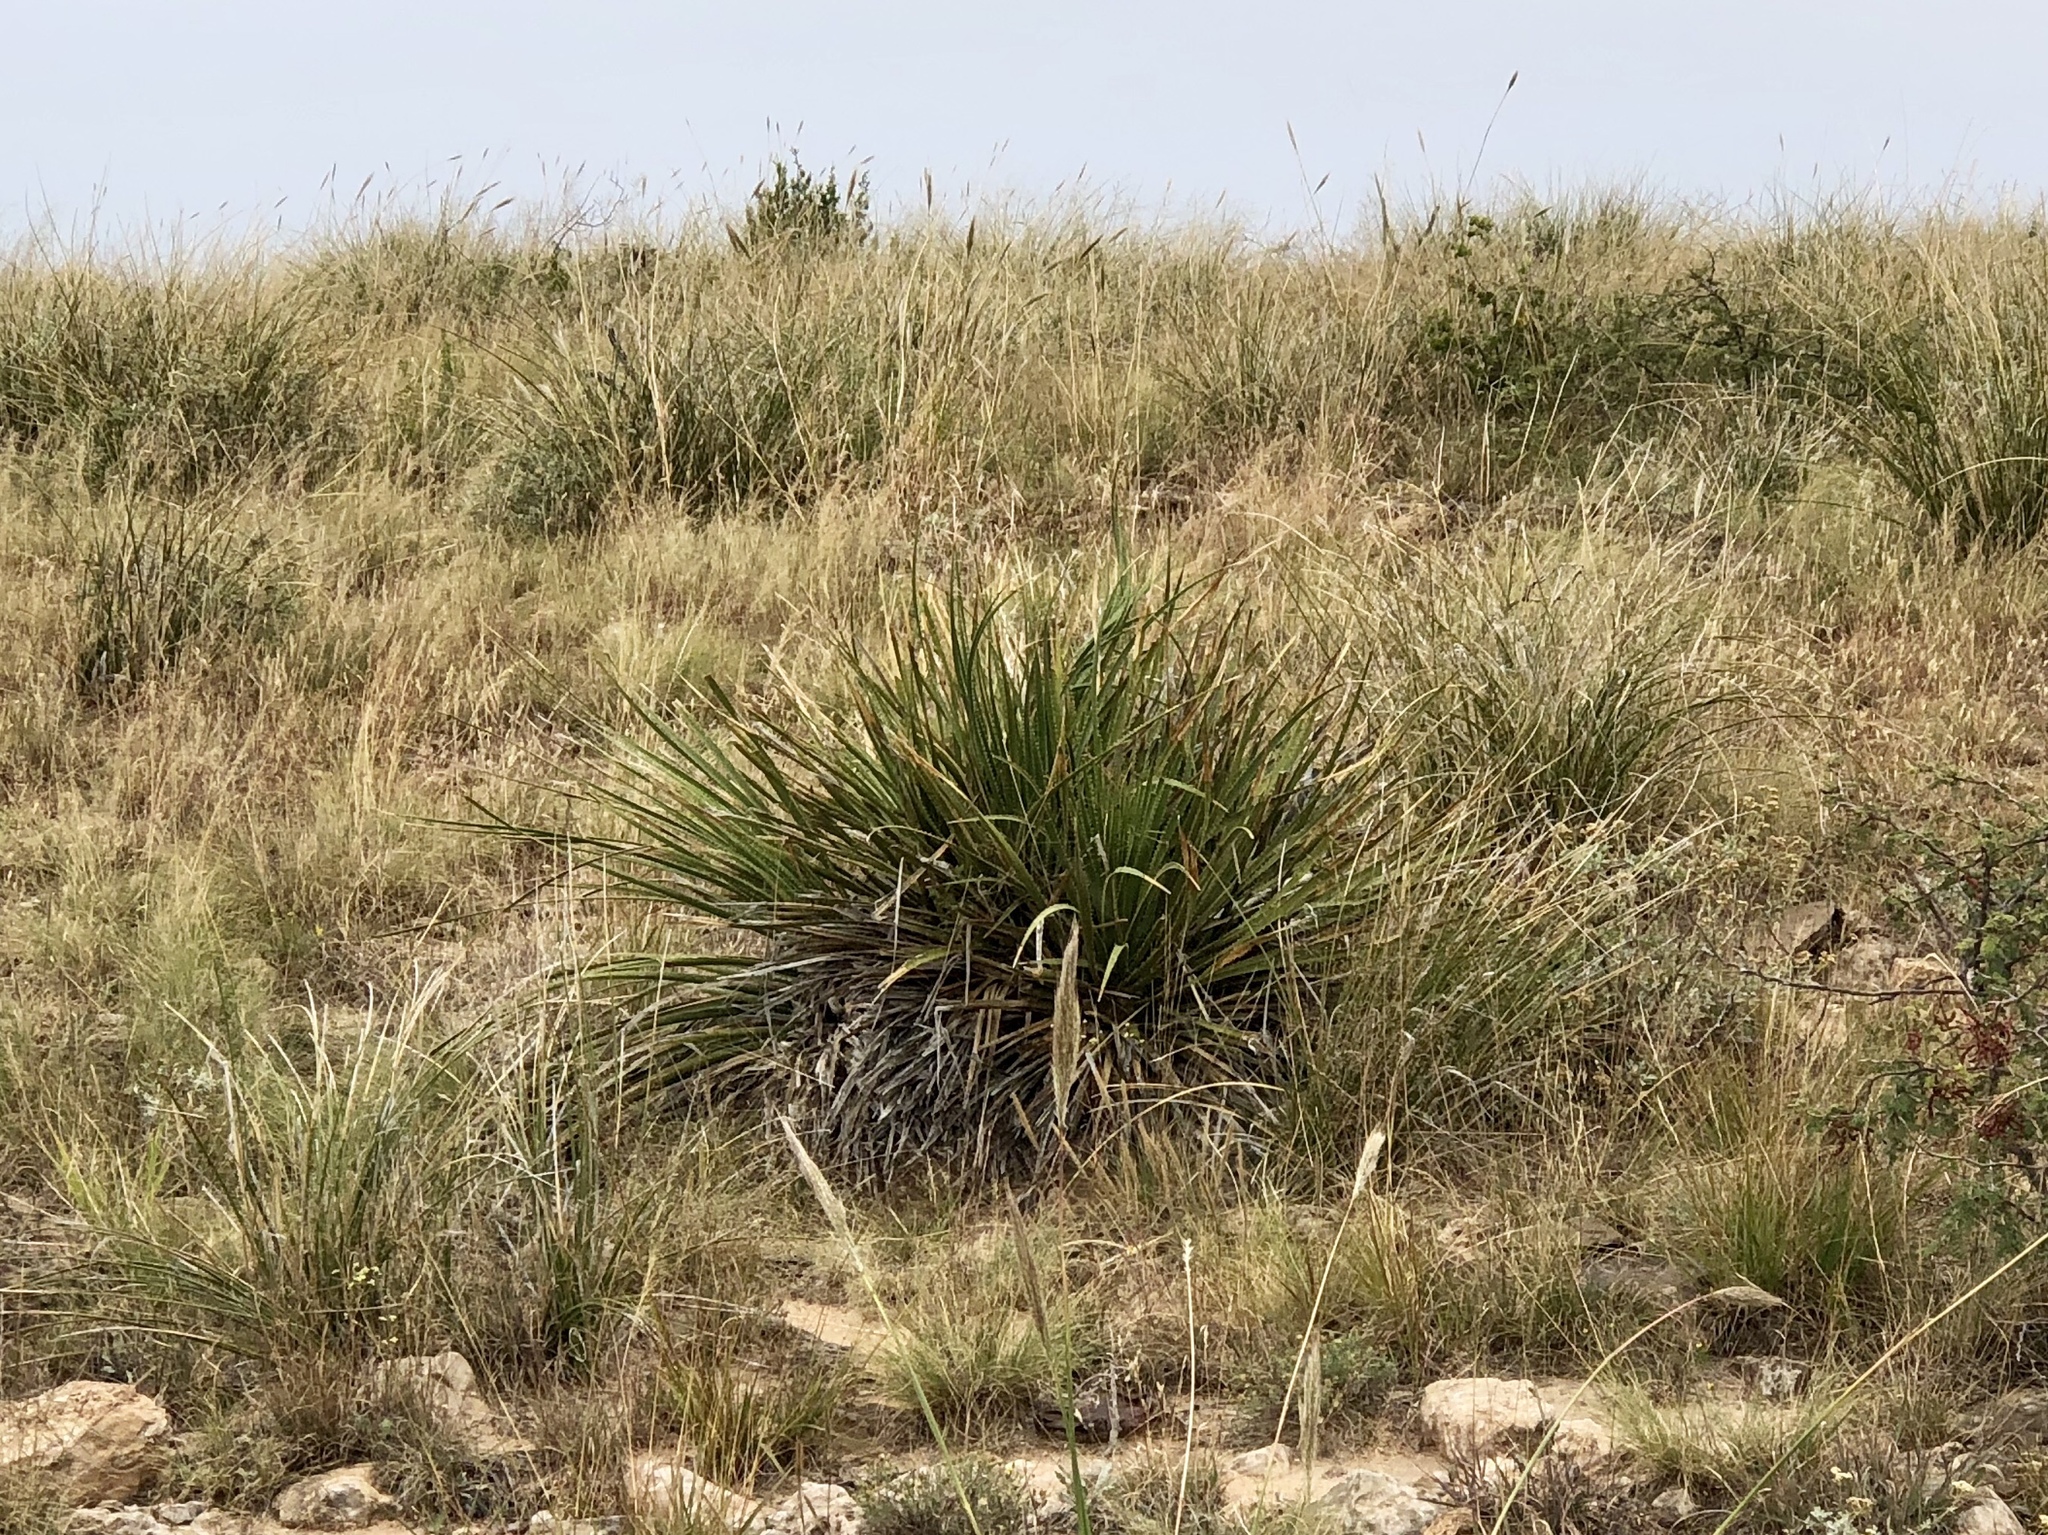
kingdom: Plantae
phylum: Tracheophyta
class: Liliopsida
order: Asparagales
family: Asparagaceae
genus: Dasylirion
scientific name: Dasylirion wheeleri
